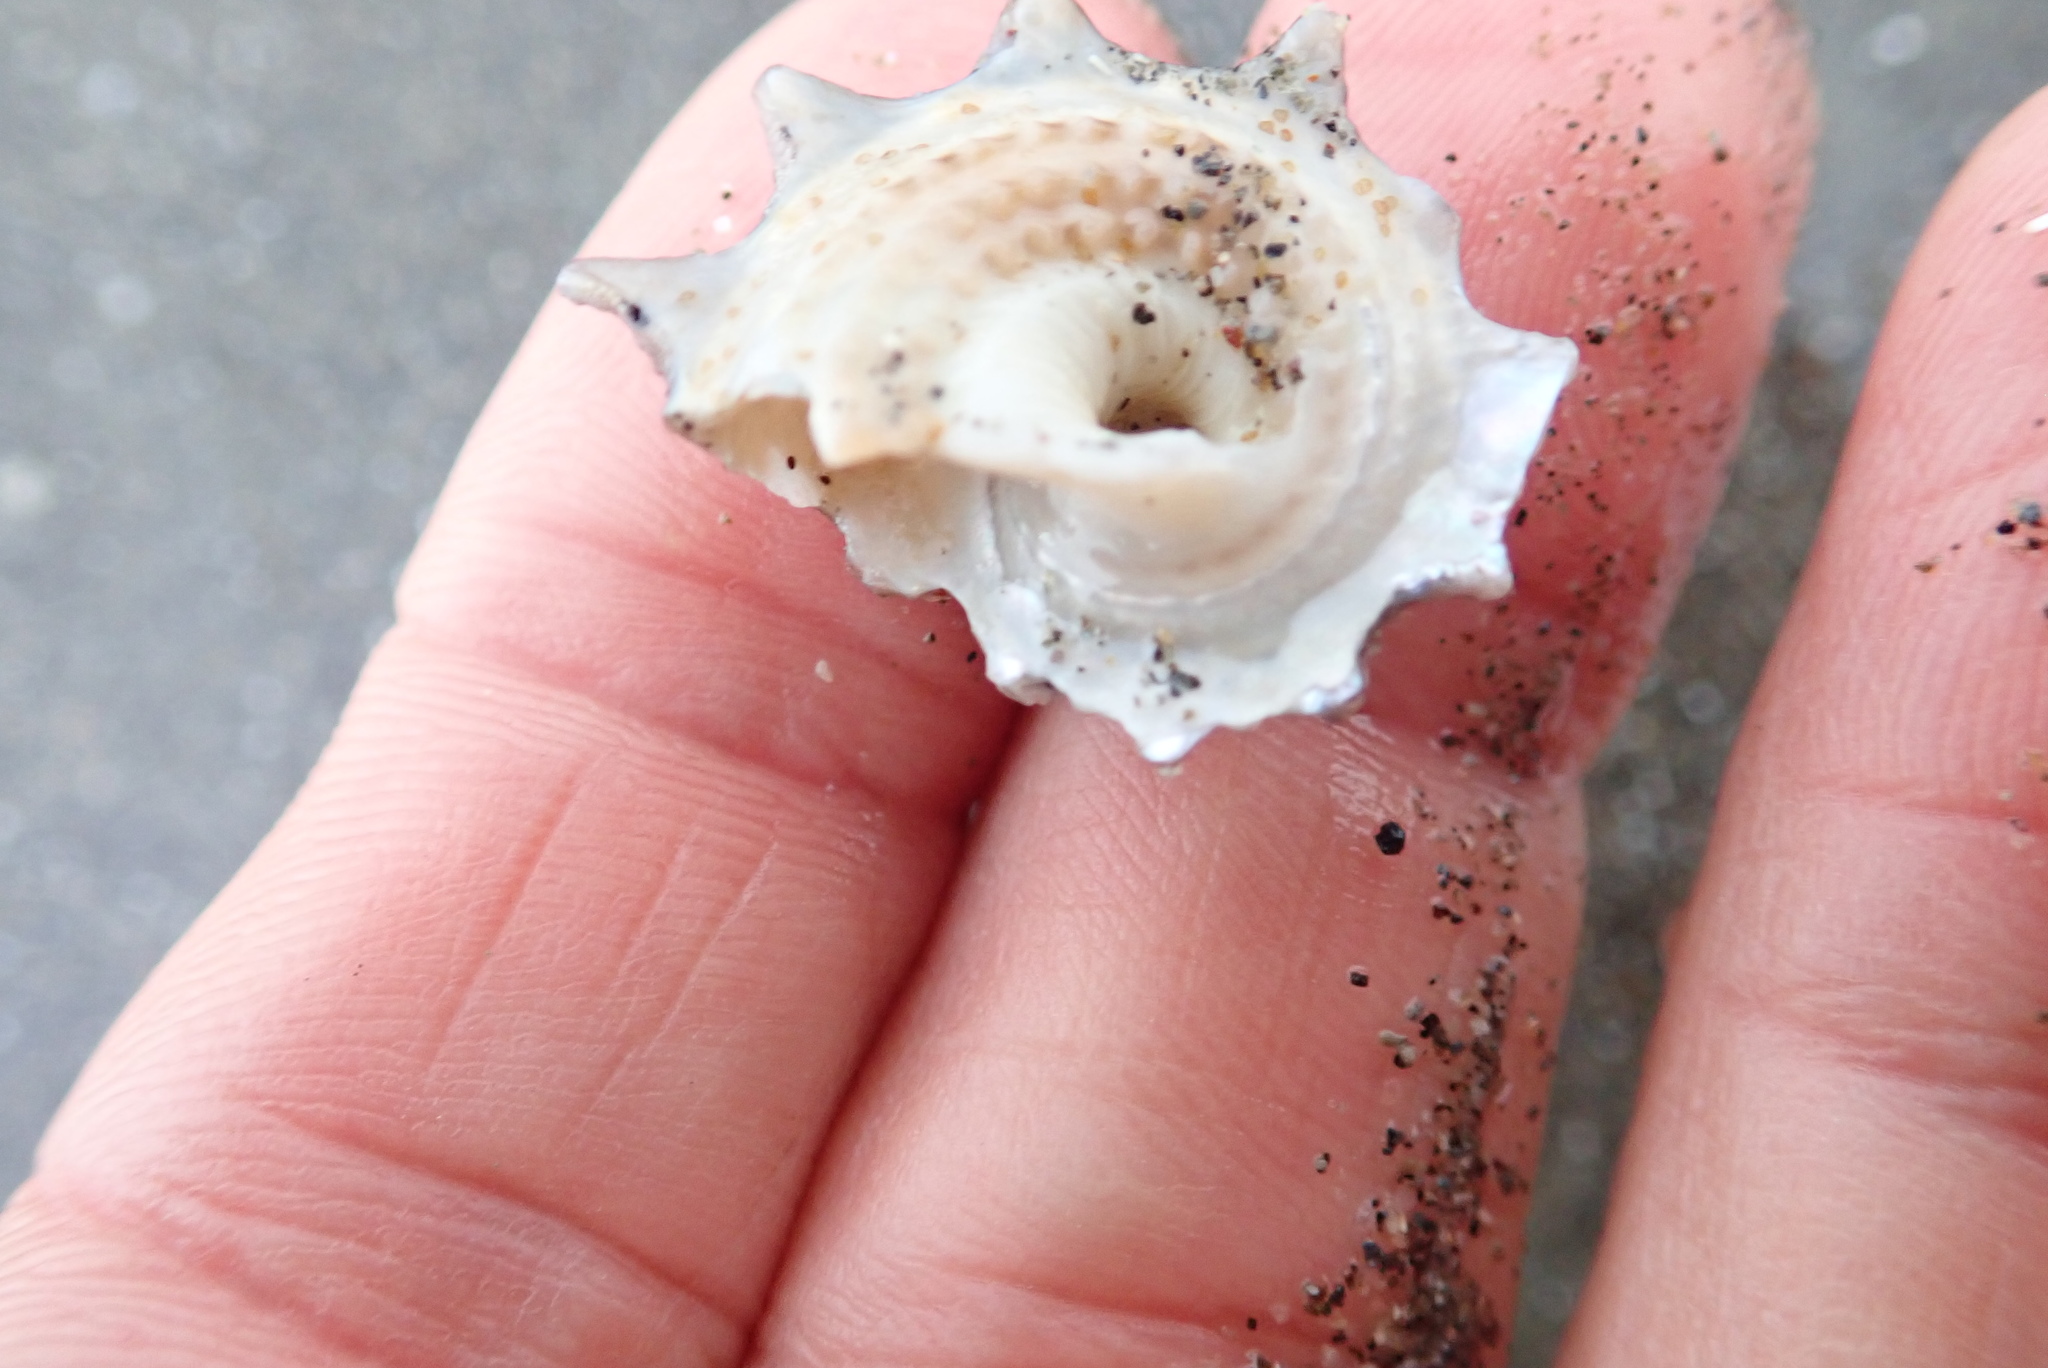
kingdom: Animalia
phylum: Mollusca
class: Gastropoda
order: Trochida
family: Turbinidae
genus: Astraea
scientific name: Astraea heliotropium
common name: Sun shell
